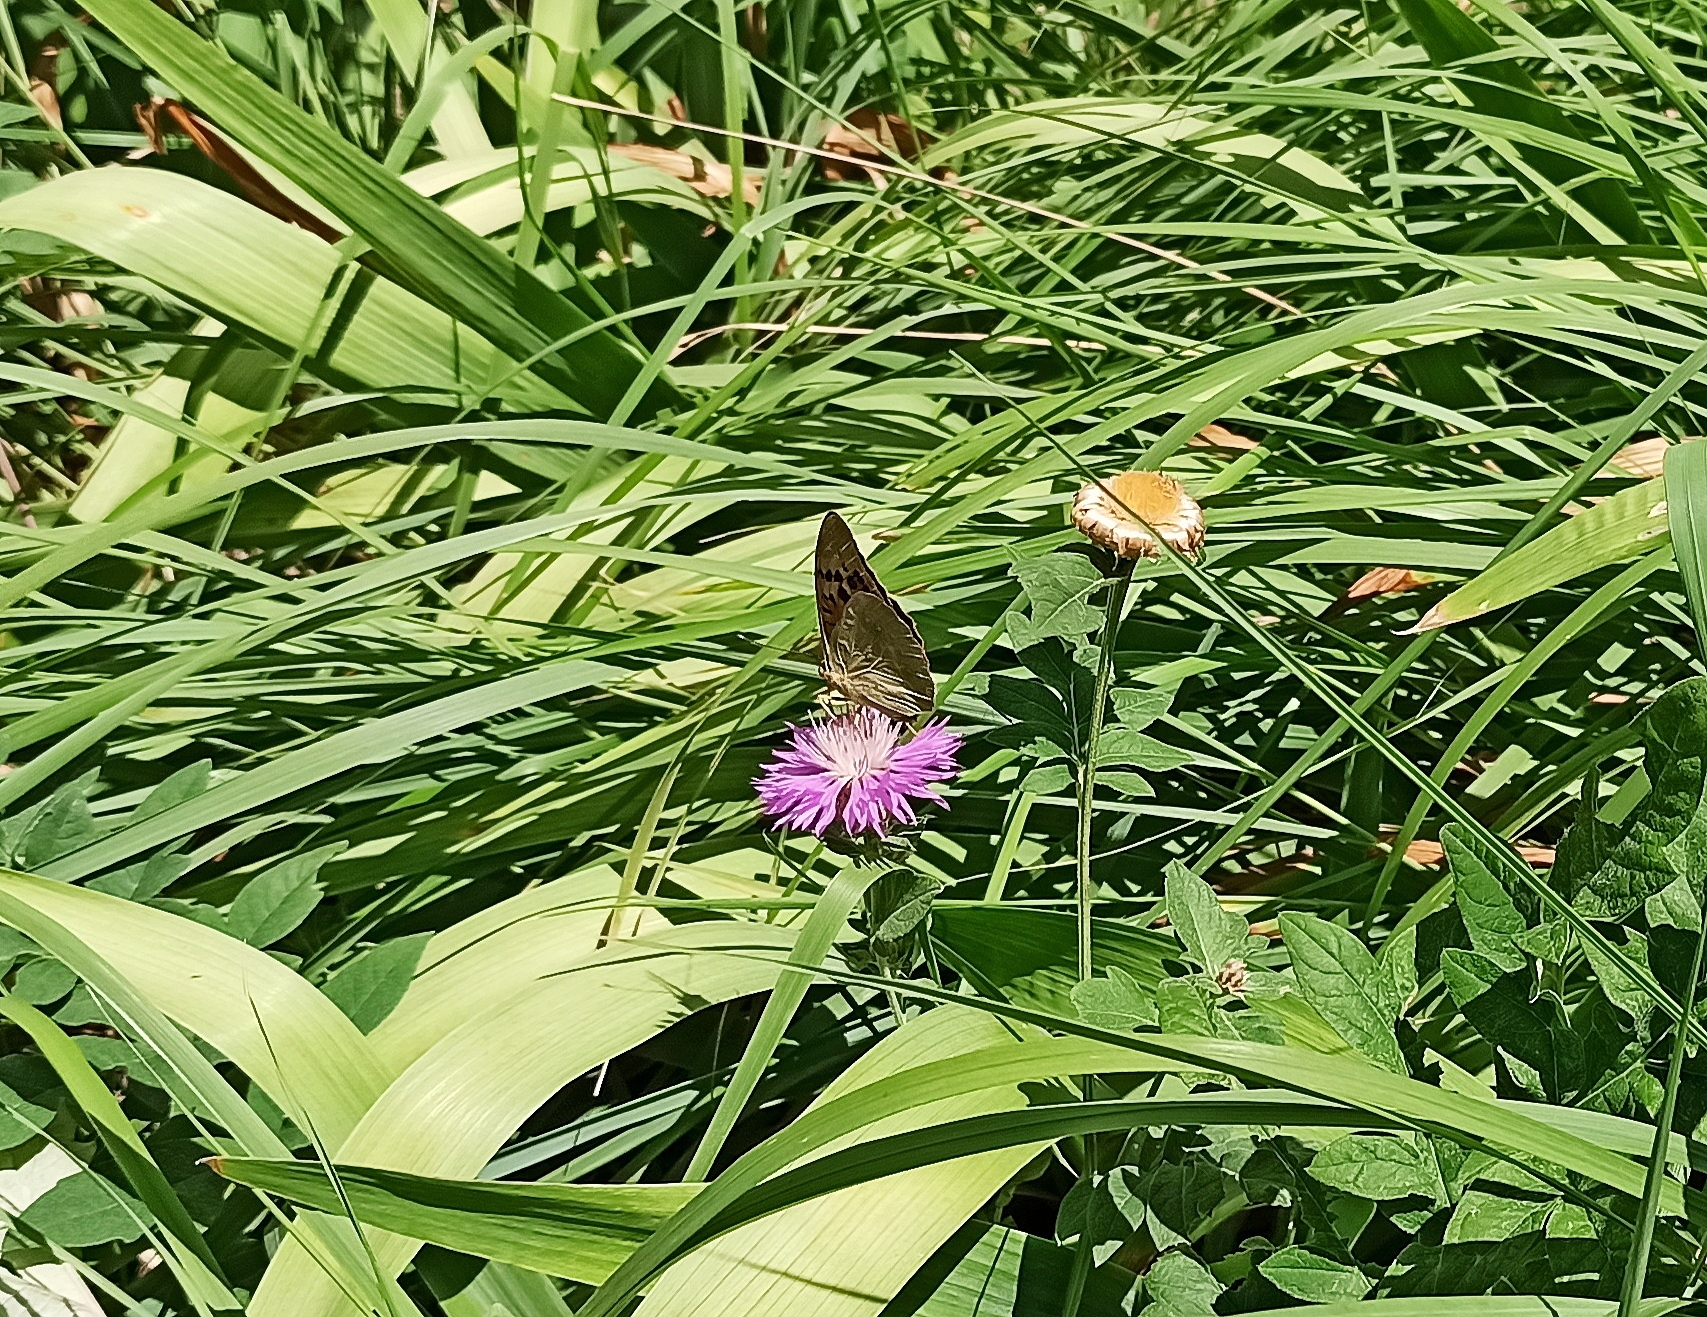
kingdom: Animalia
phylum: Arthropoda
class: Insecta
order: Lepidoptera
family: Nymphalidae
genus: Damora
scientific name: Damora pandora
